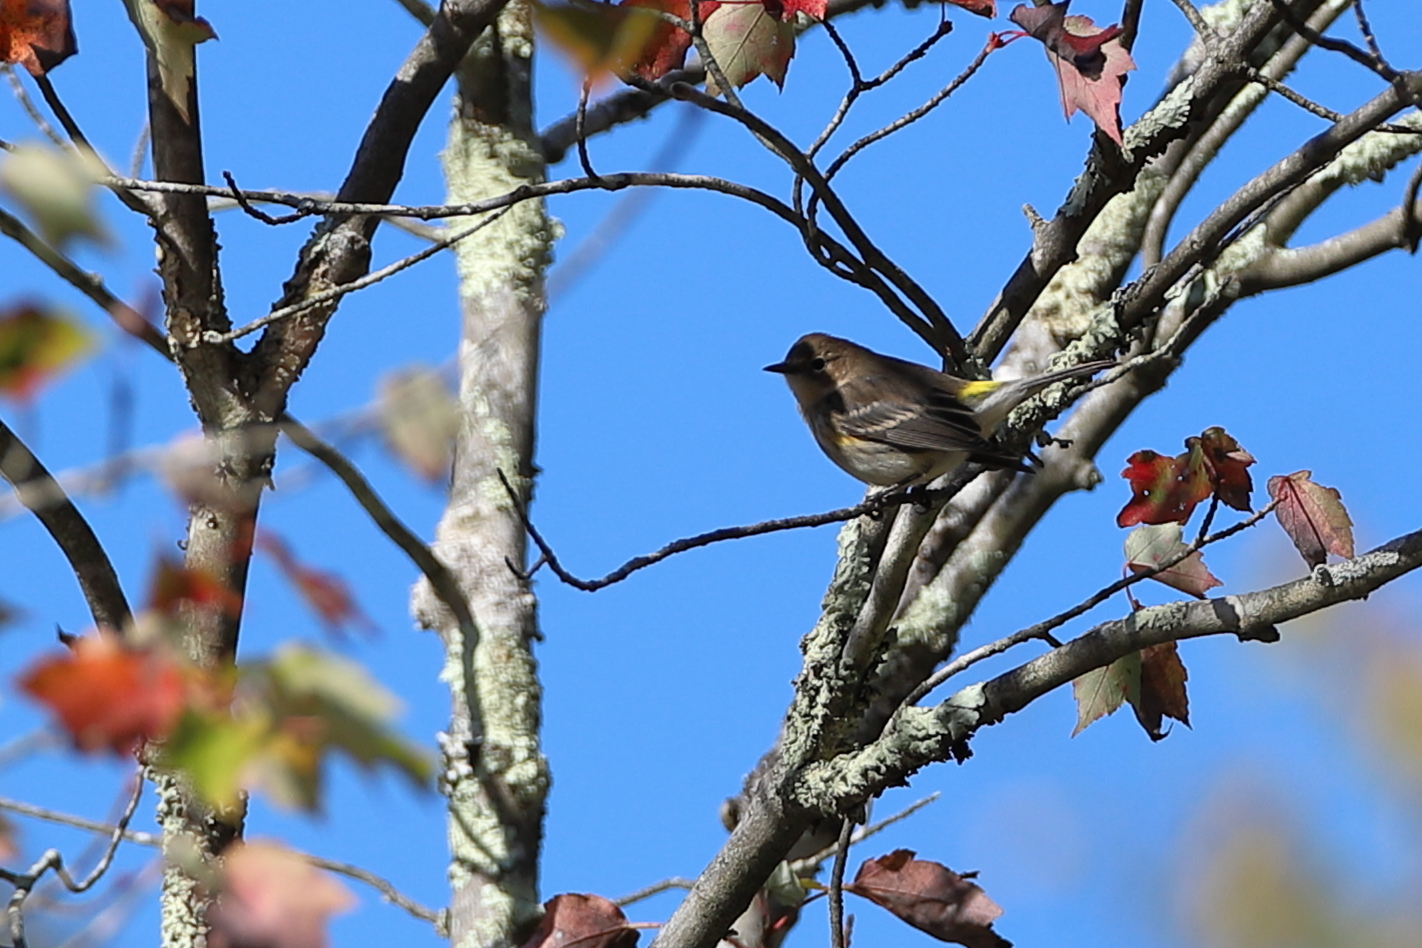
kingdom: Animalia
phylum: Chordata
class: Aves
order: Passeriformes
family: Parulidae
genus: Setophaga
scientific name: Setophaga coronata
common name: Myrtle warbler
